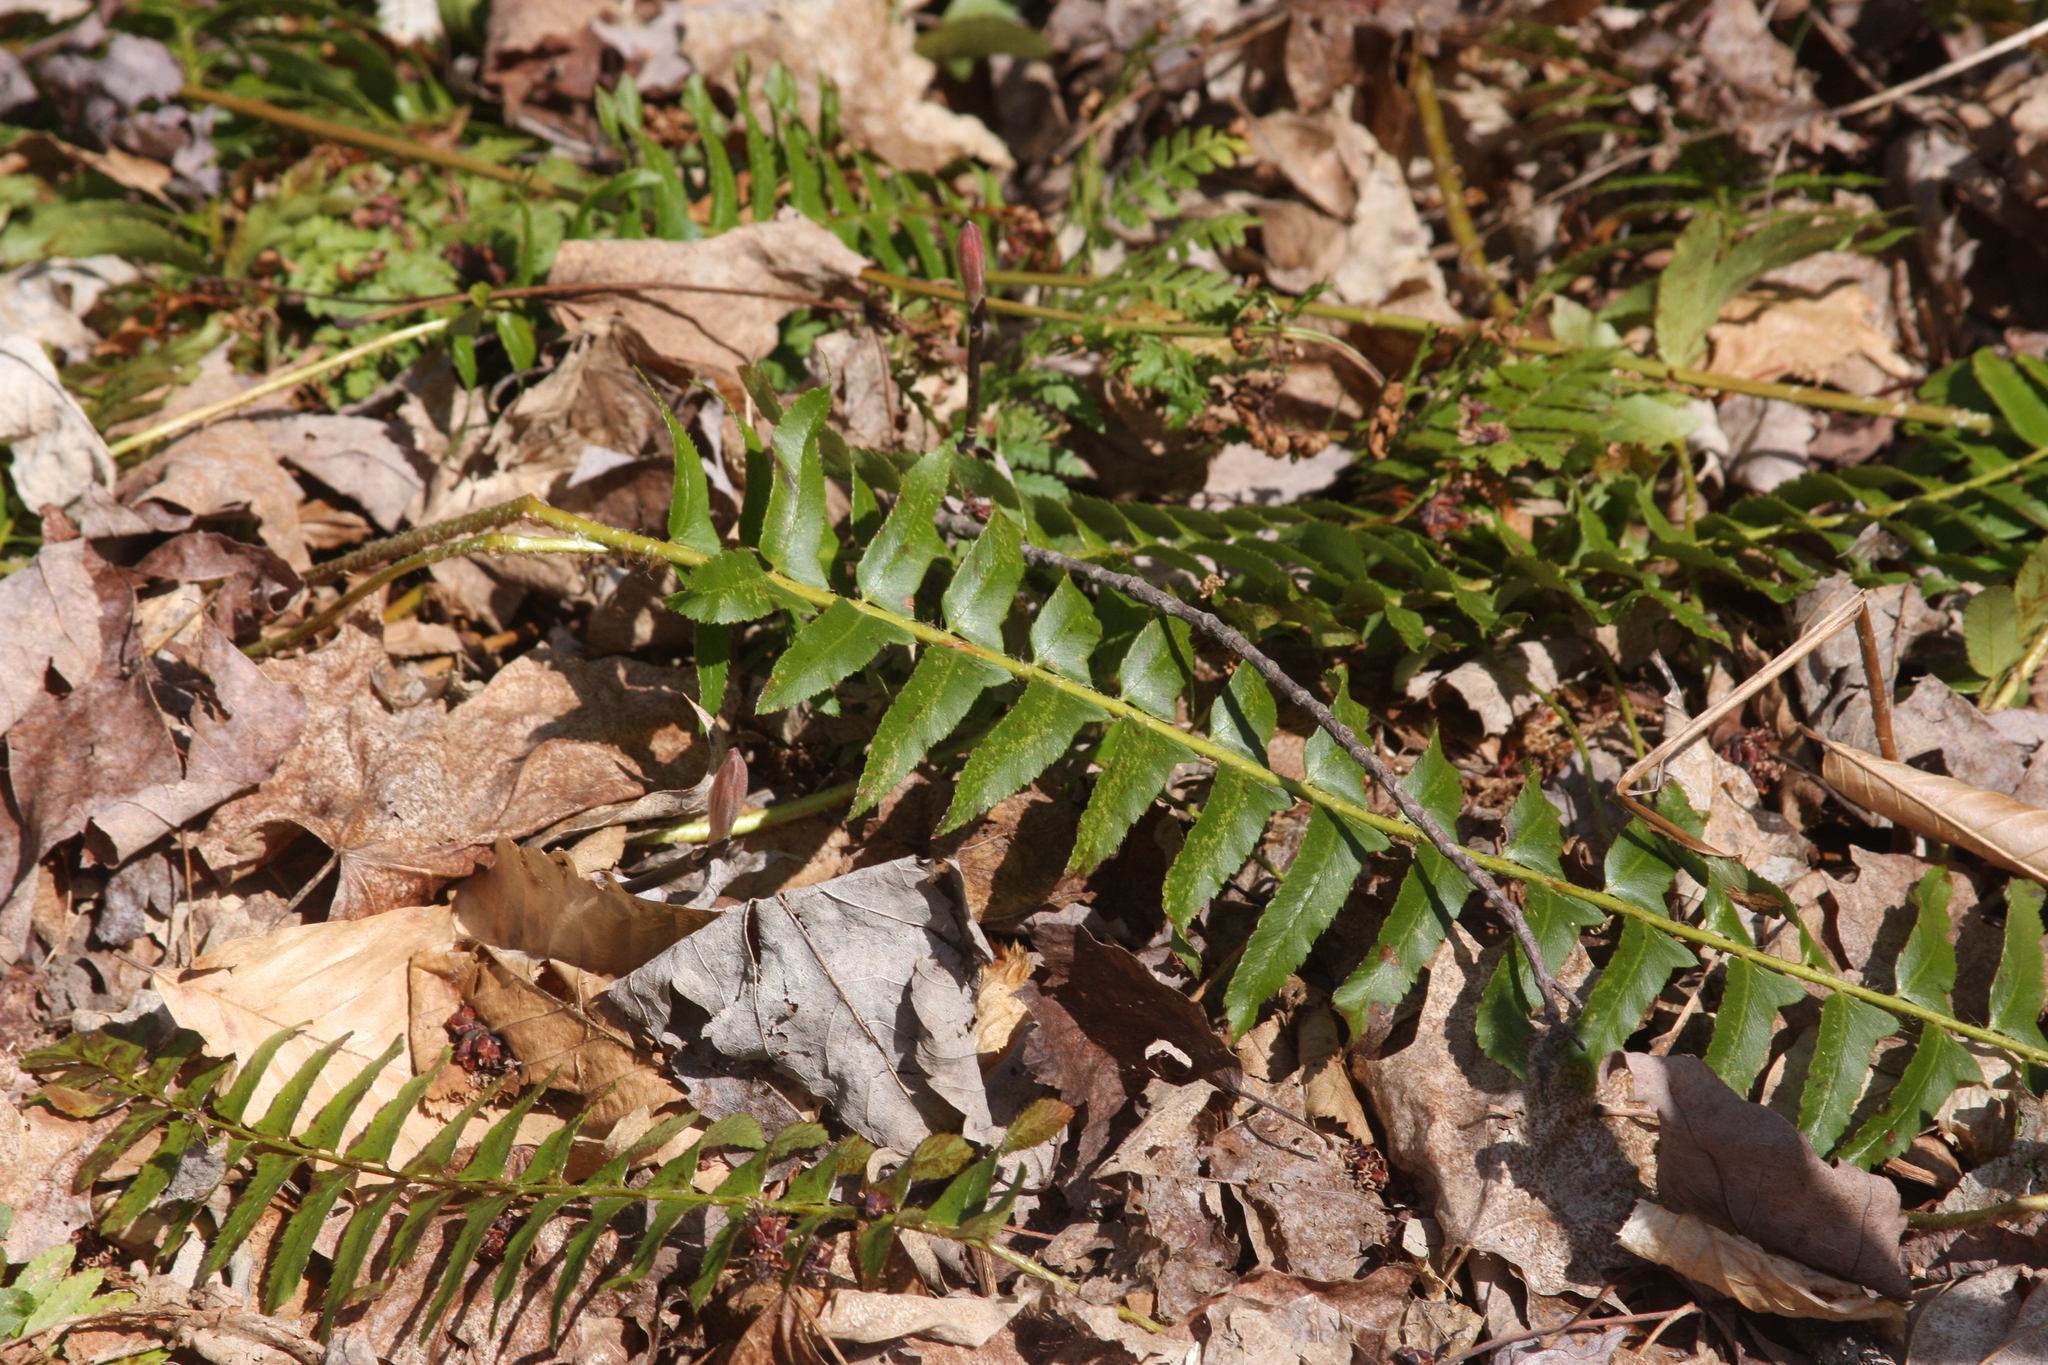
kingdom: Plantae
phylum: Tracheophyta
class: Polypodiopsida
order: Polypodiales
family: Dryopteridaceae
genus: Polystichum
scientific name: Polystichum acrostichoides
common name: Christmas fern
